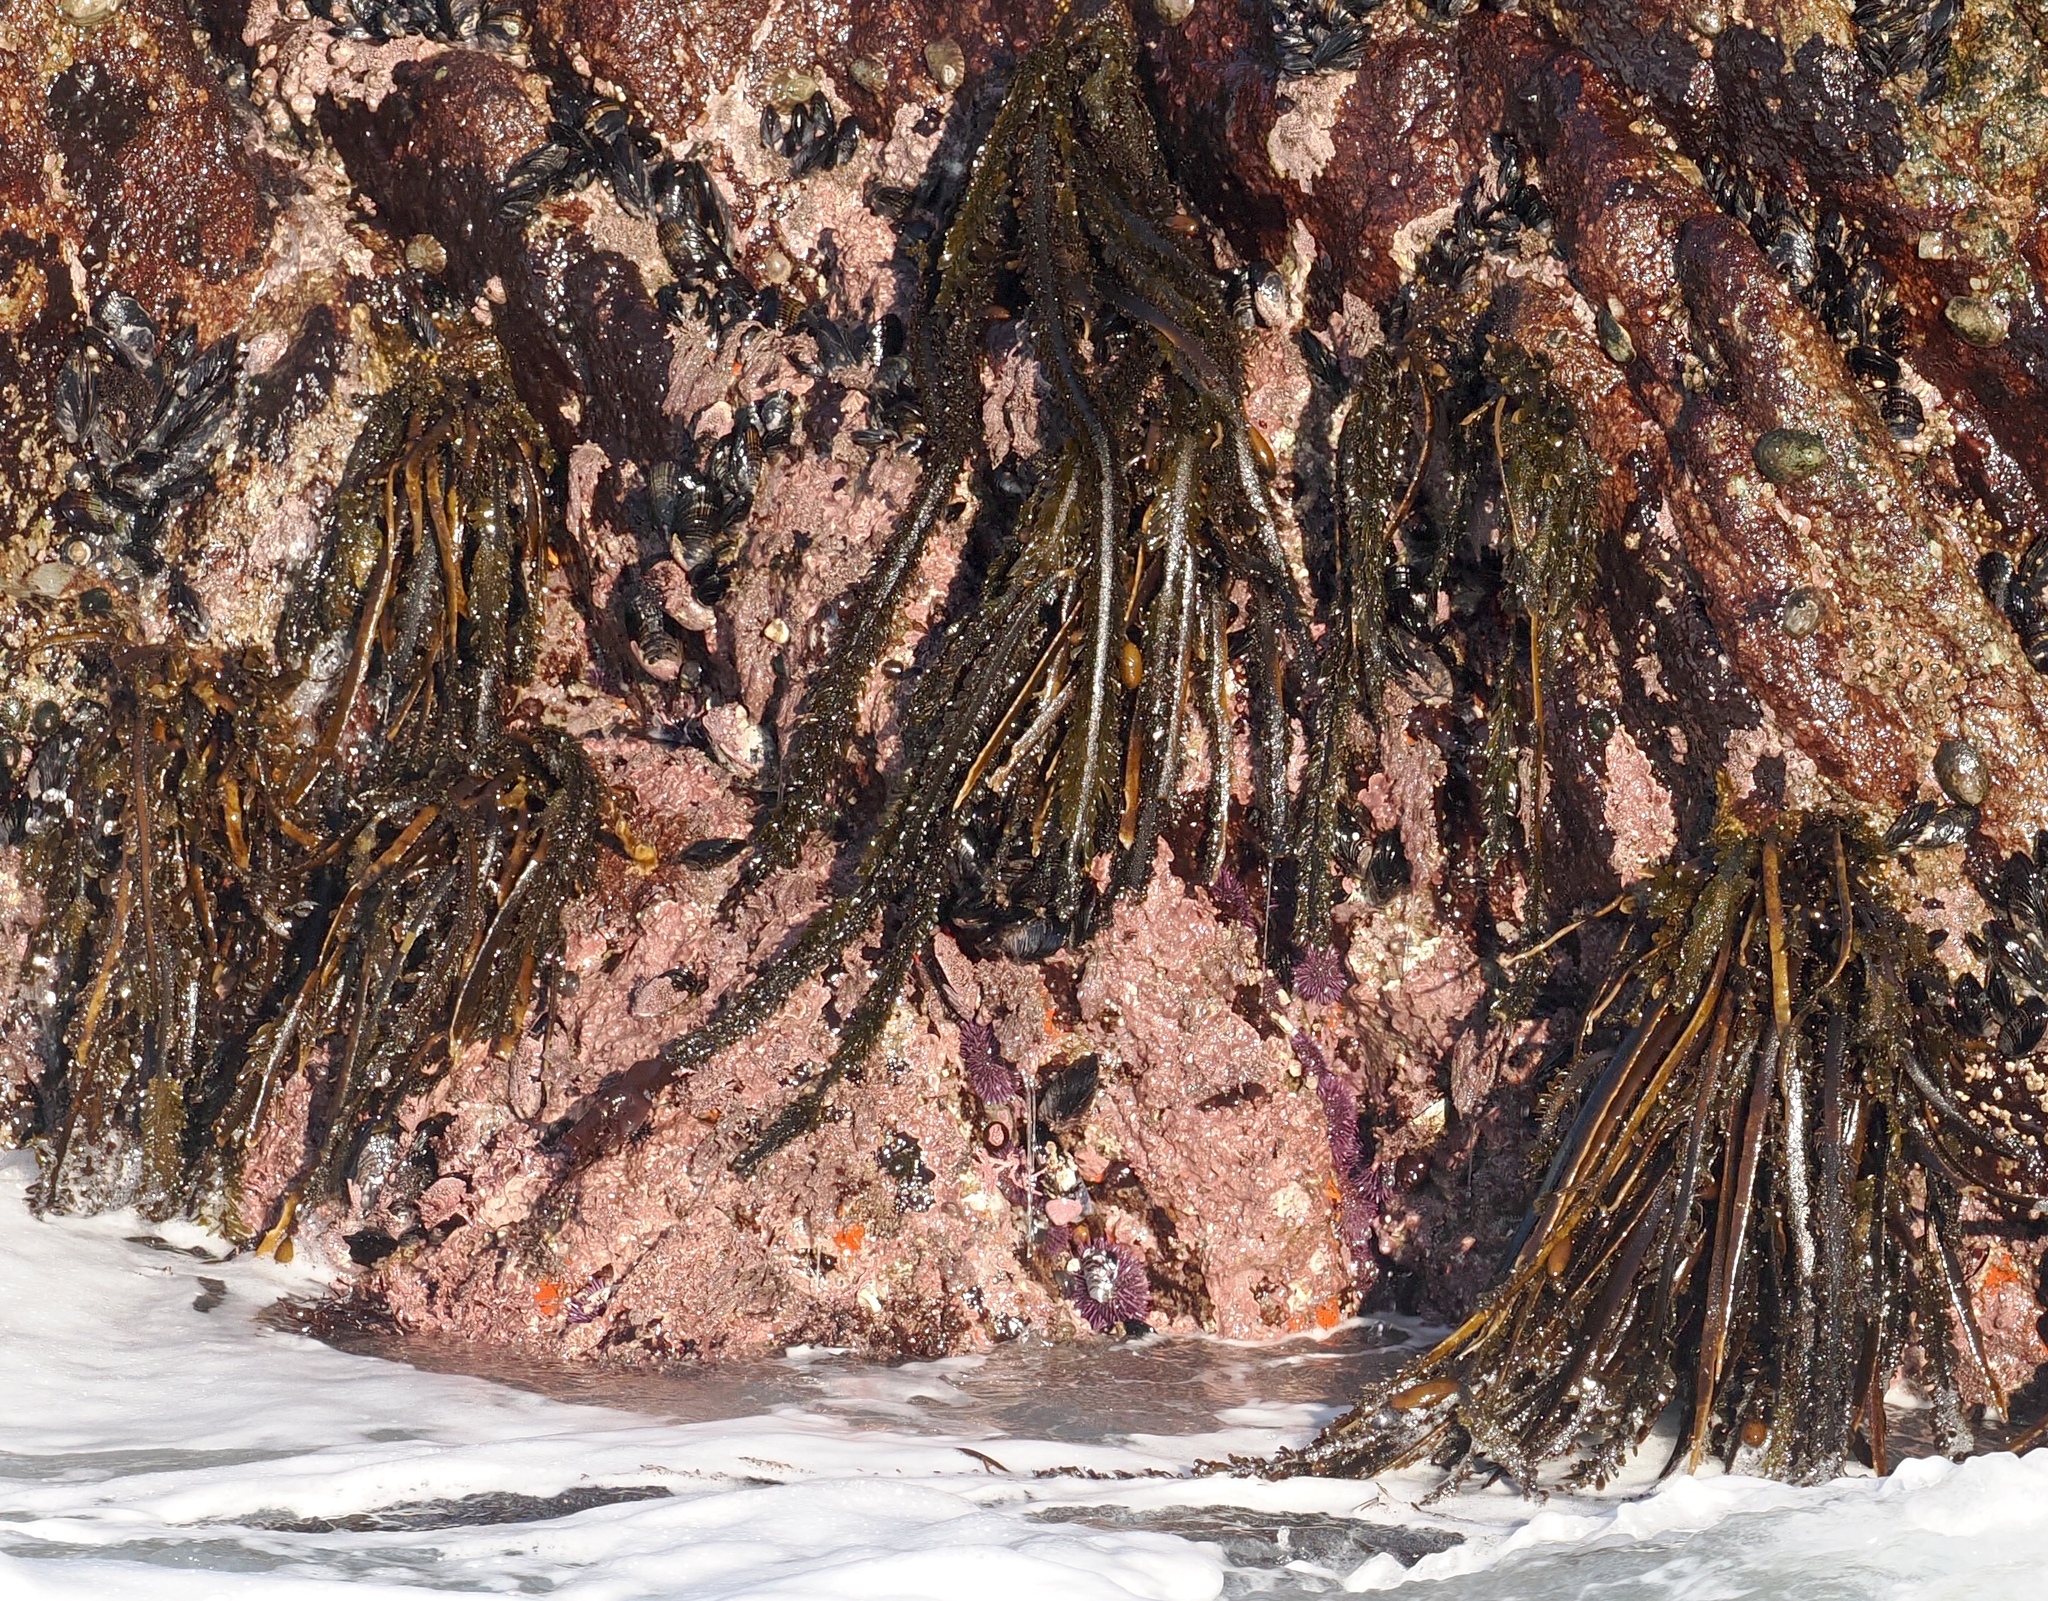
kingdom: Chromista
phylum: Ochrophyta
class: Phaeophyceae
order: Laminariales
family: Lessoniaceae
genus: Egregia
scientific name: Egregia menziesii
